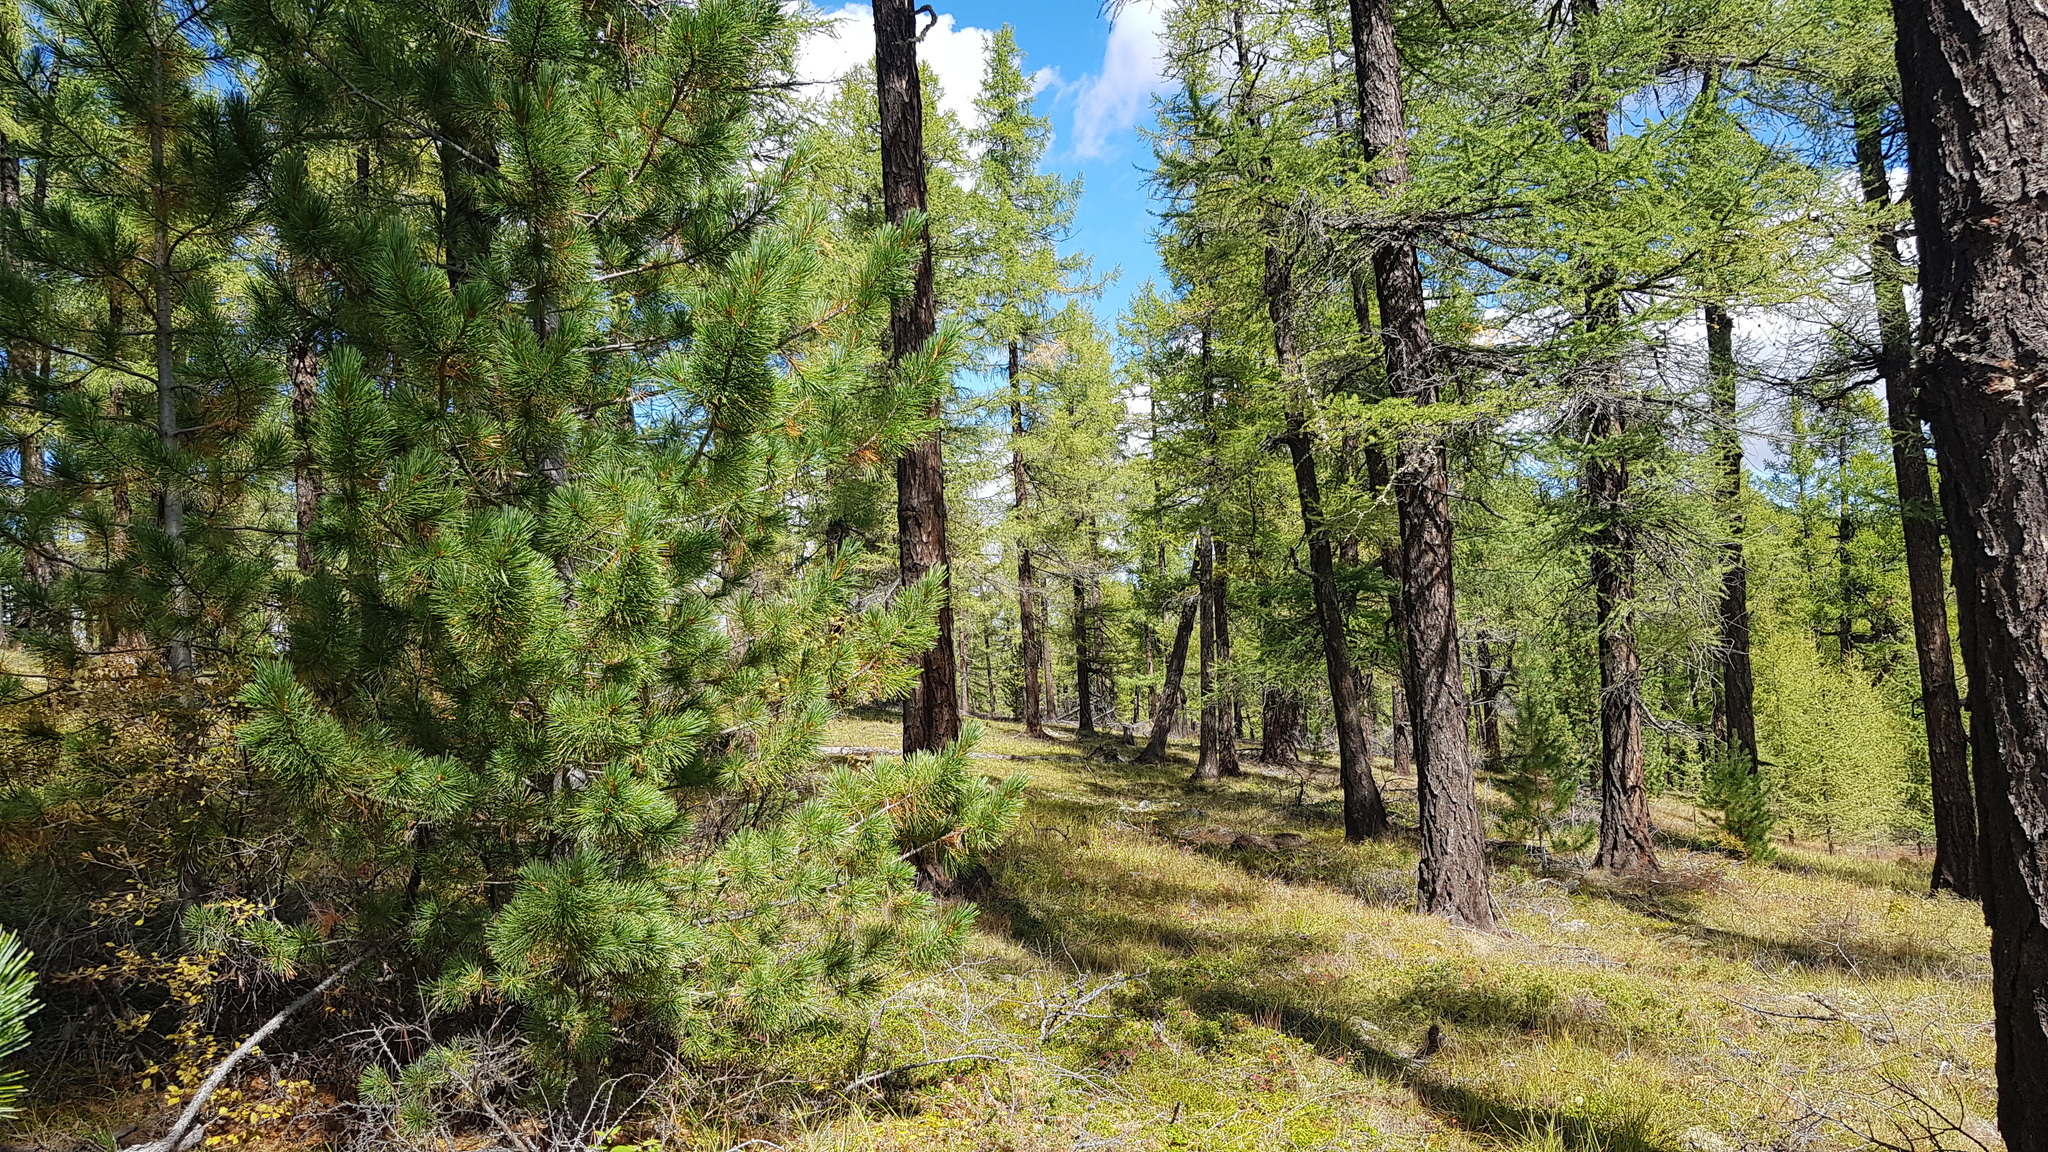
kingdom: Plantae
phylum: Tracheophyta
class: Pinopsida
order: Pinales
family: Pinaceae
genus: Larix
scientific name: Larix sibirica
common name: Siberian larch
